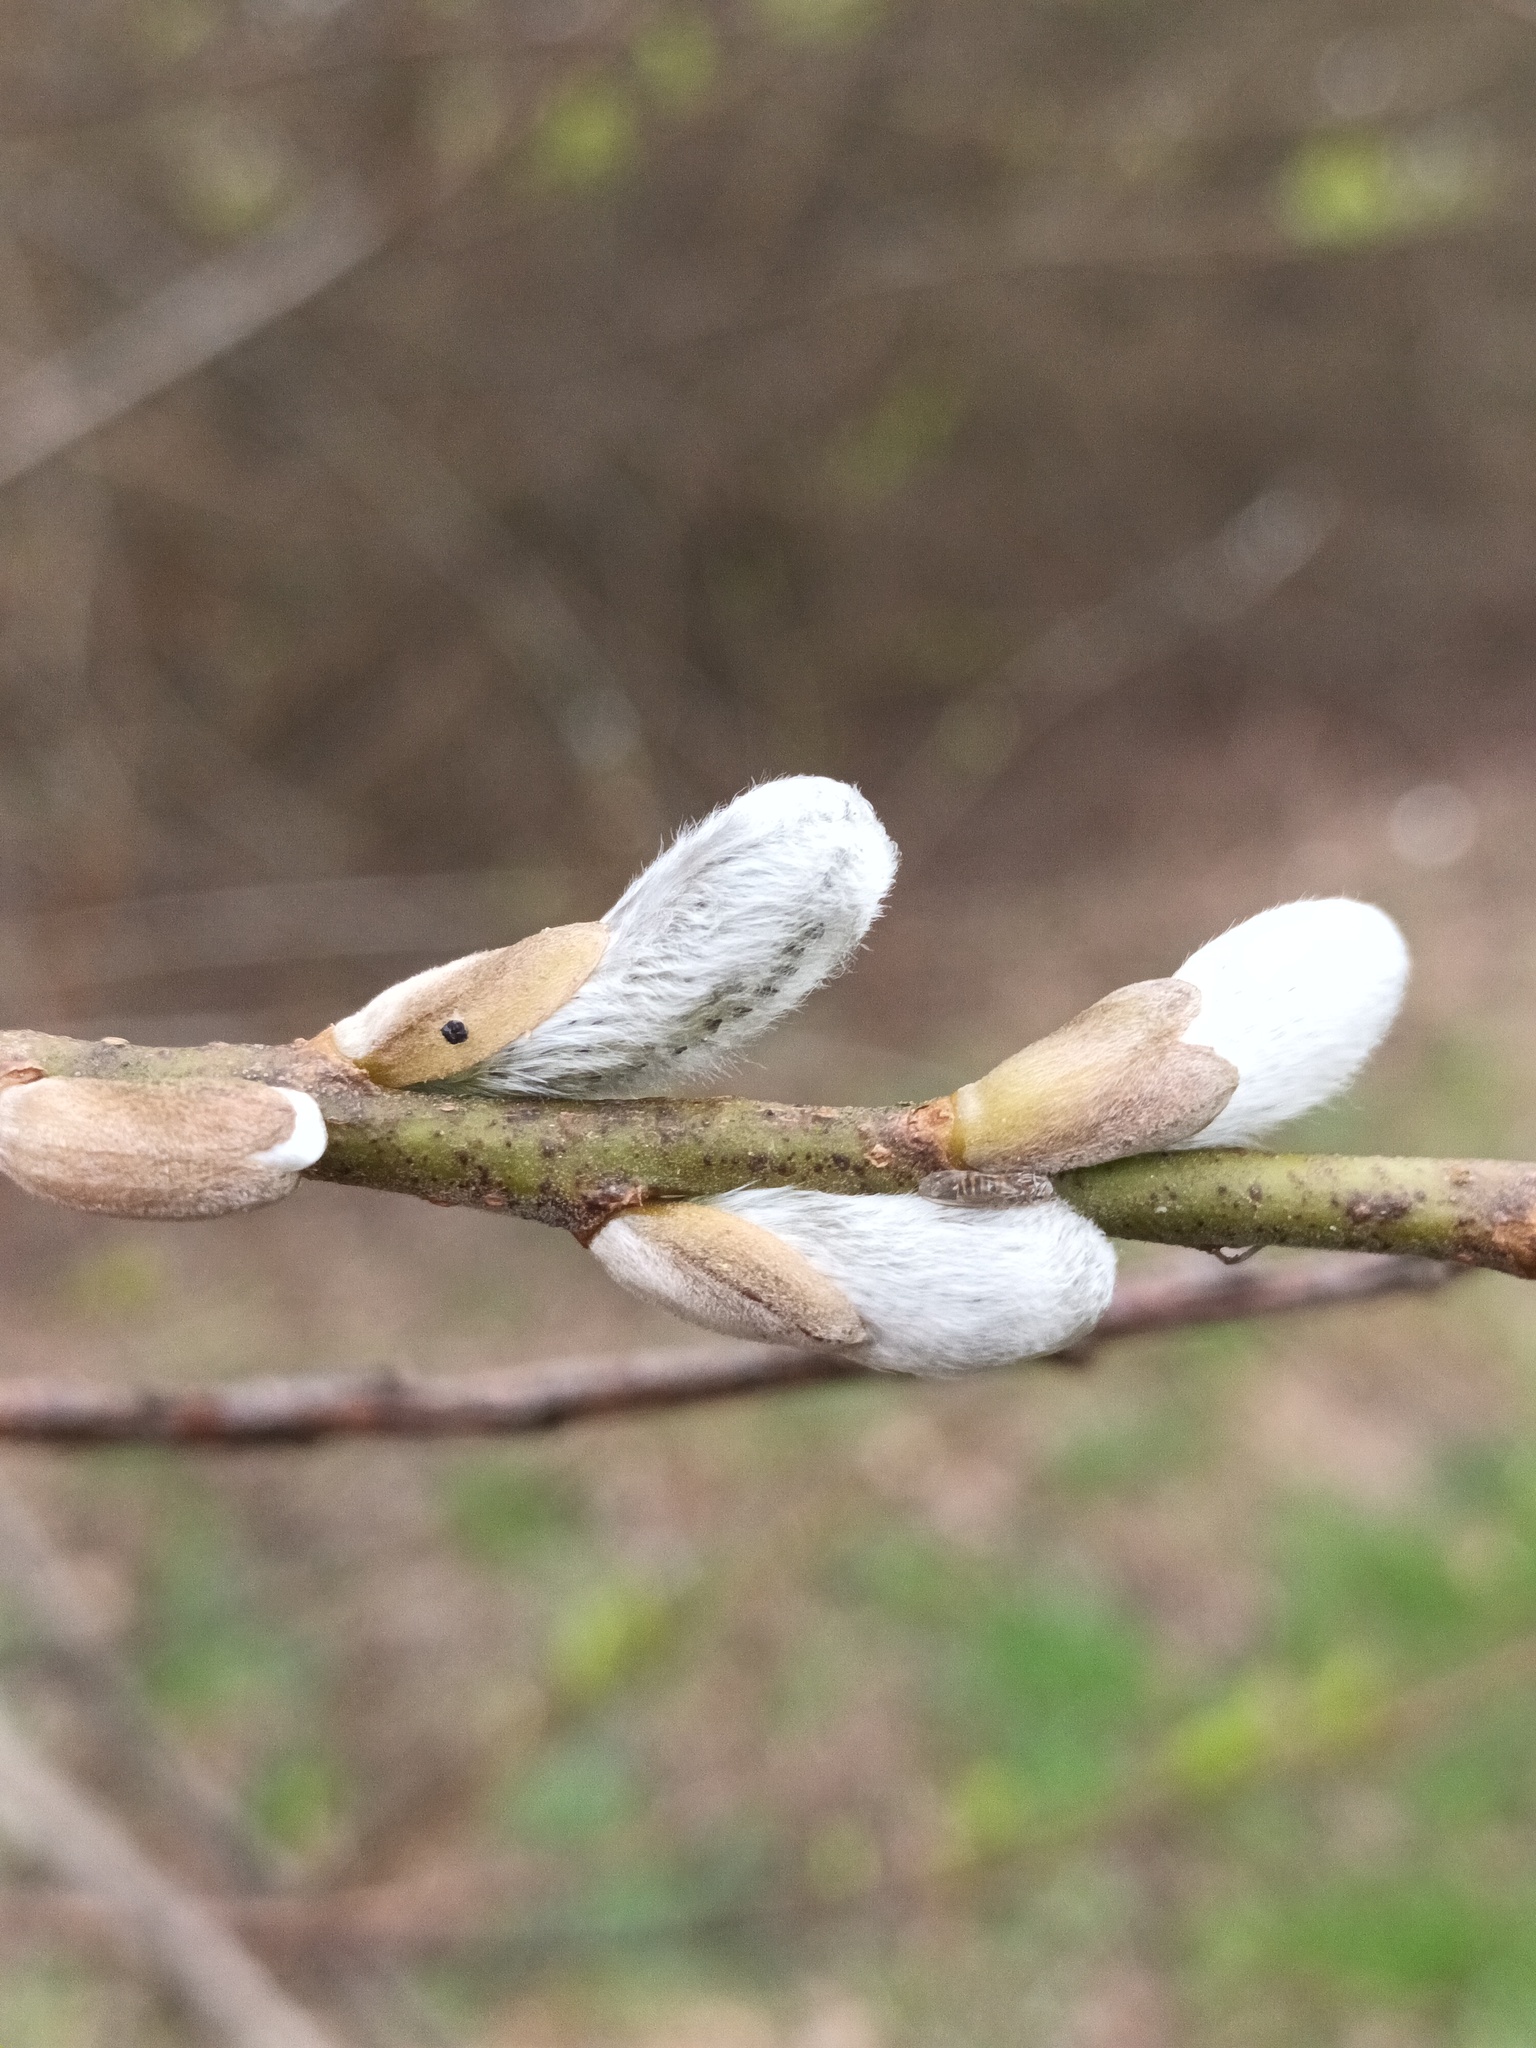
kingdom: Plantae
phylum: Tracheophyta
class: Magnoliopsida
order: Malpighiales
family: Salicaceae
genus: Salix
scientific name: Salix viminalis
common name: Osier
